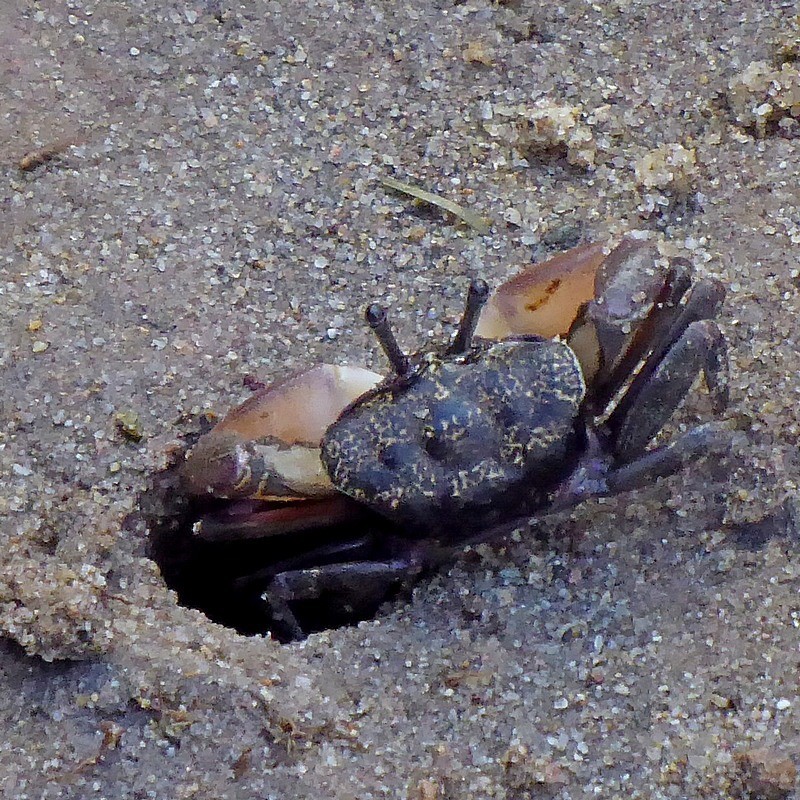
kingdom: Animalia
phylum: Arthropoda
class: Malacostraca
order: Decapoda
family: Heloeciidae
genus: Heloecius
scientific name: Heloecius cordiformis
